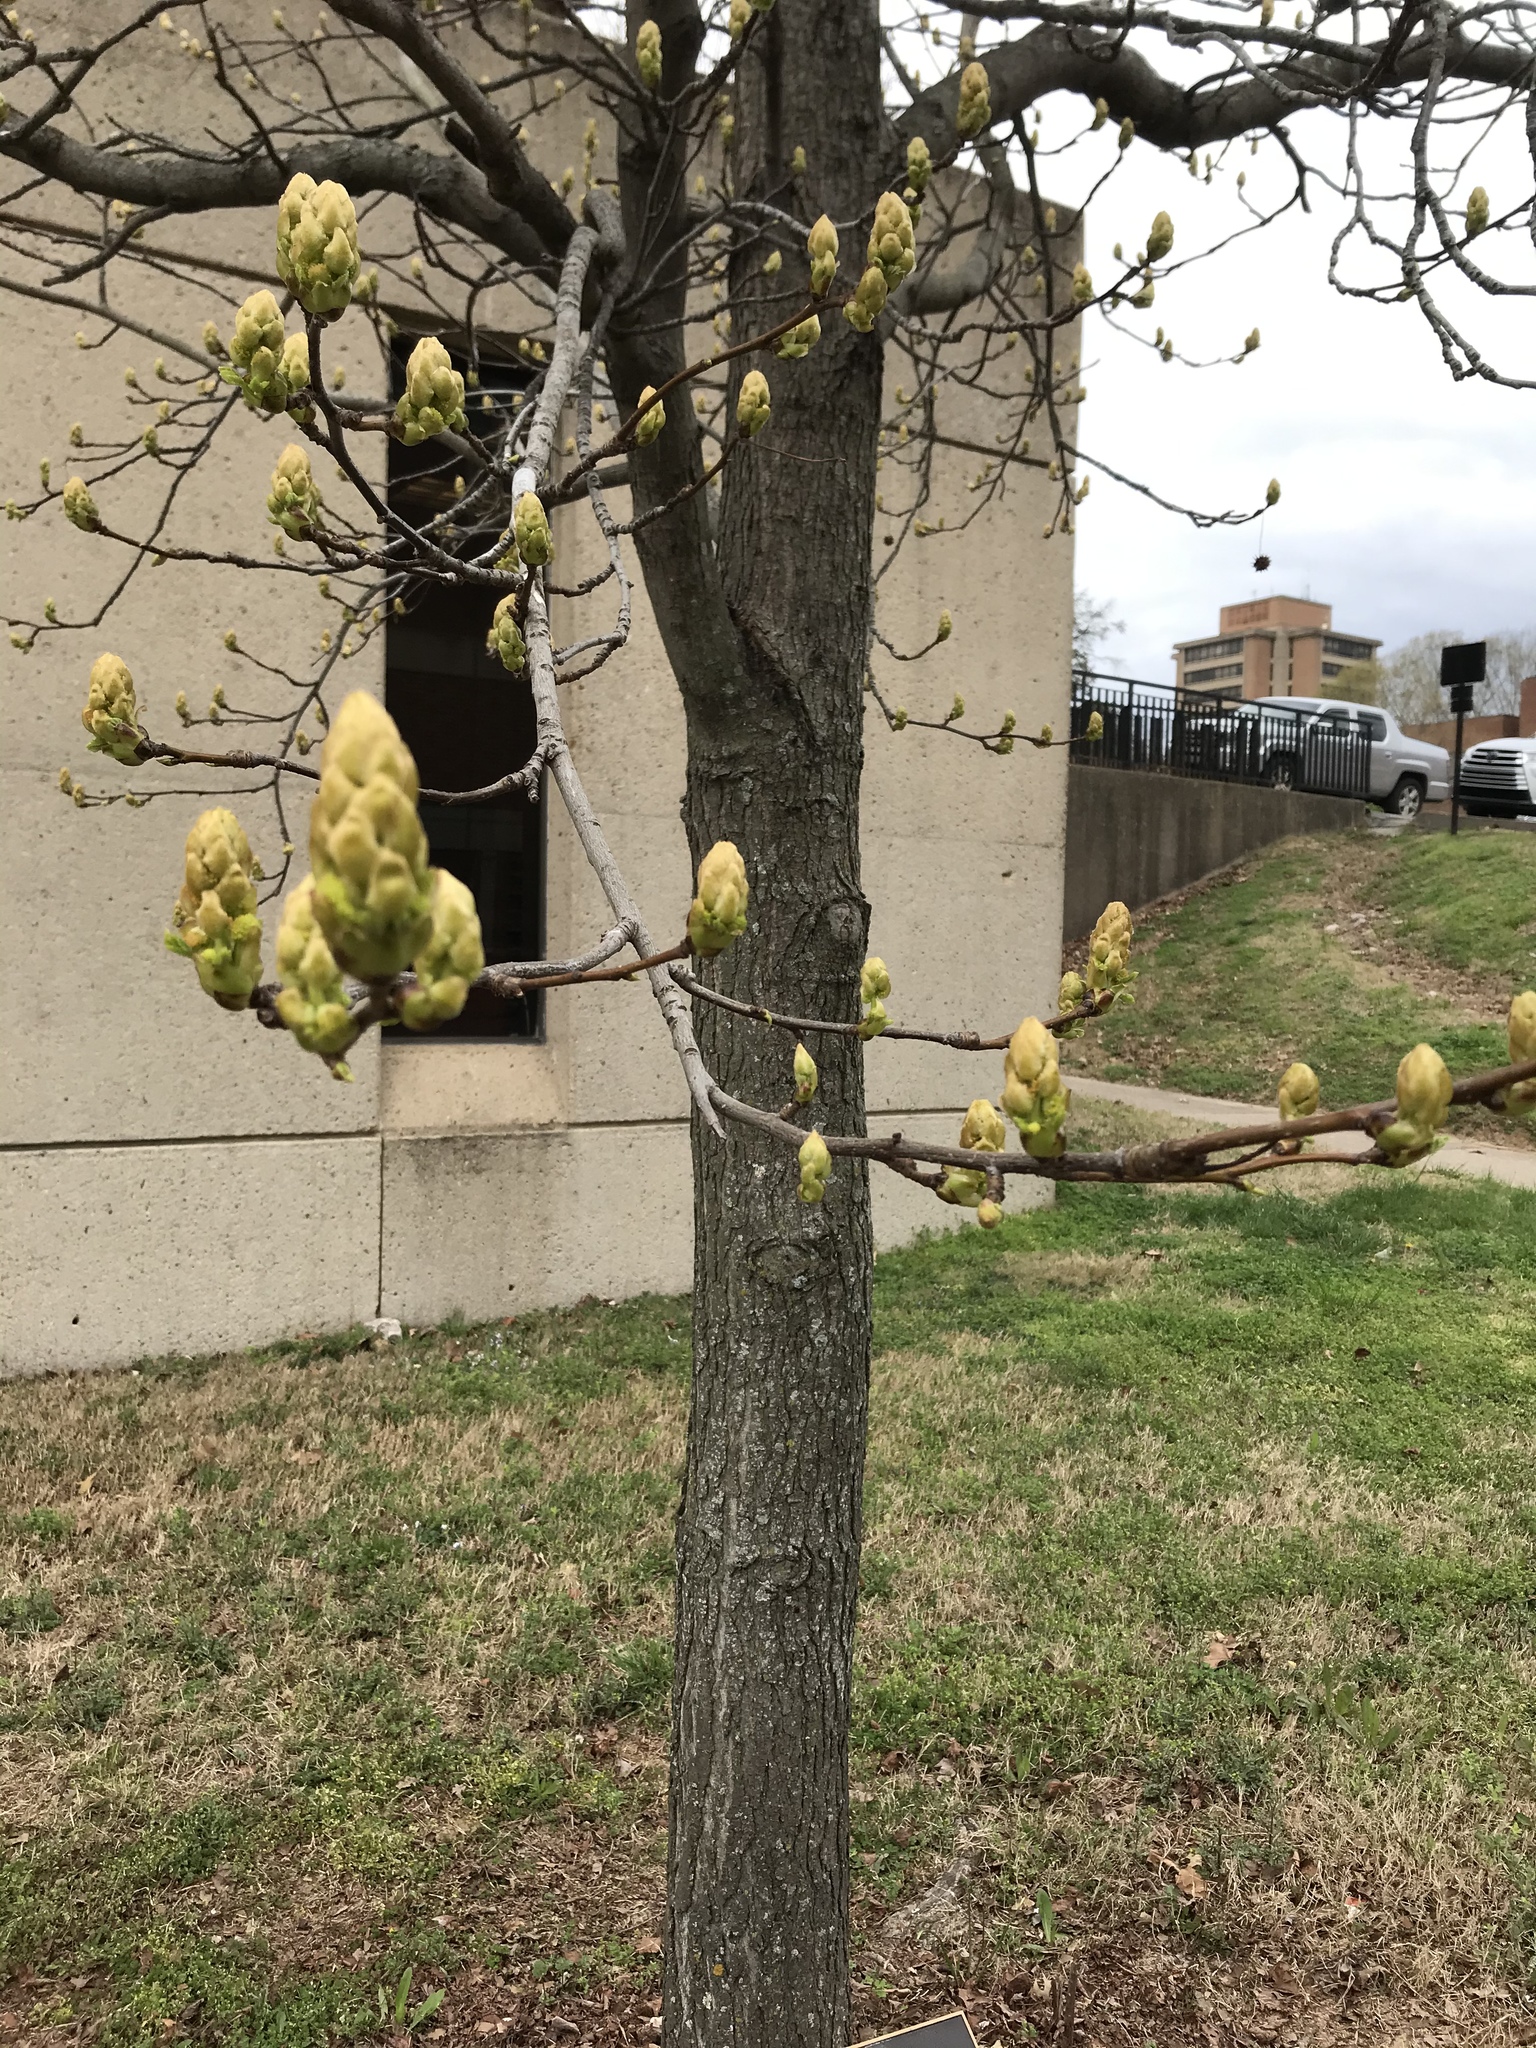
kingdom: Plantae
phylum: Tracheophyta
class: Magnoliopsida
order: Saxifragales
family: Altingiaceae
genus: Liquidambar
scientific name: Liquidambar styraciflua
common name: Sweet gum
